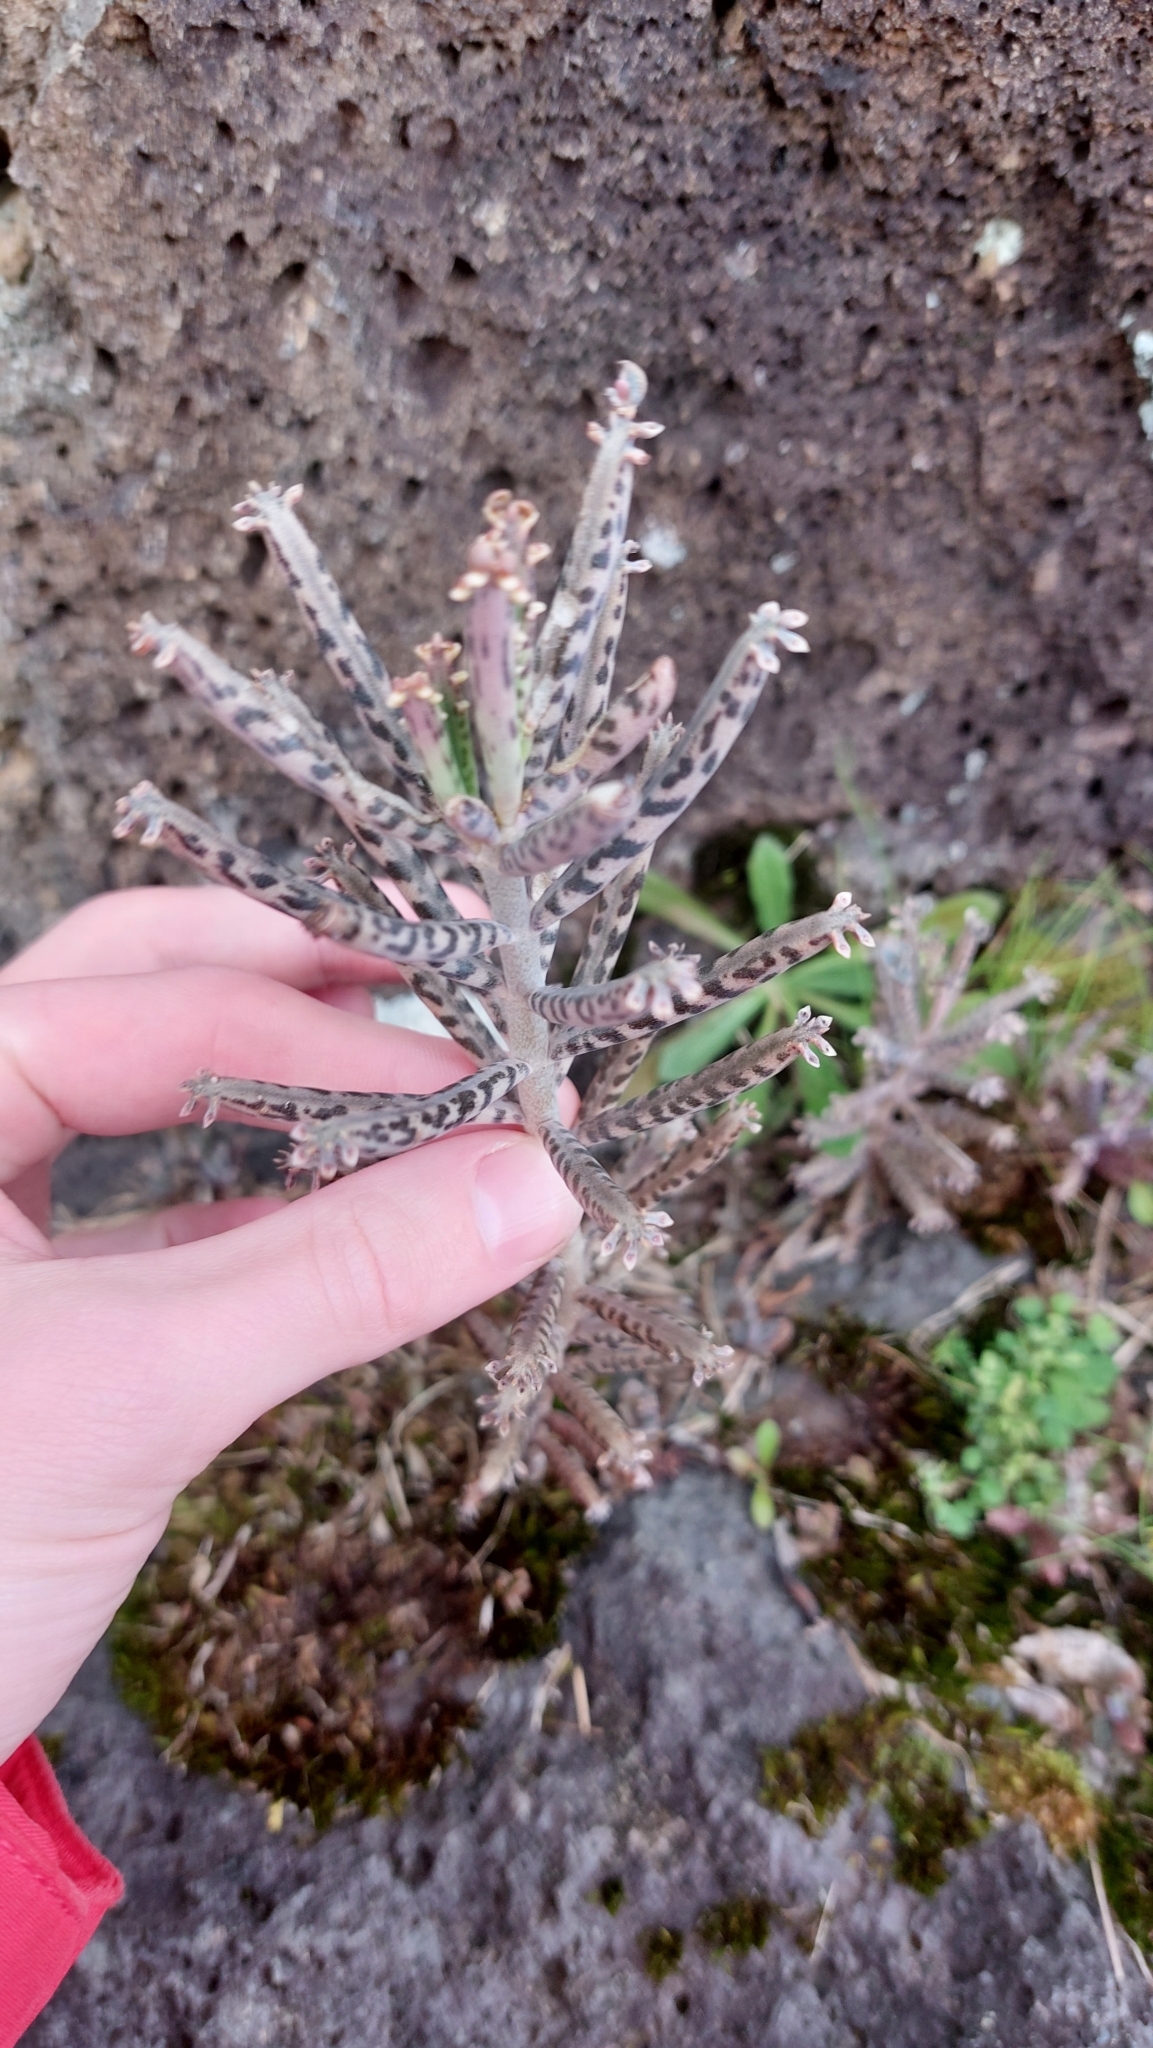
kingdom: Plantae
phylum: Tracheophyta
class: Magnoliopsida
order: Saxifragales
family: Crassulaceae
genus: Kalanchoe
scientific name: Kalanchoe delagoensis
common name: Chandelier plant
